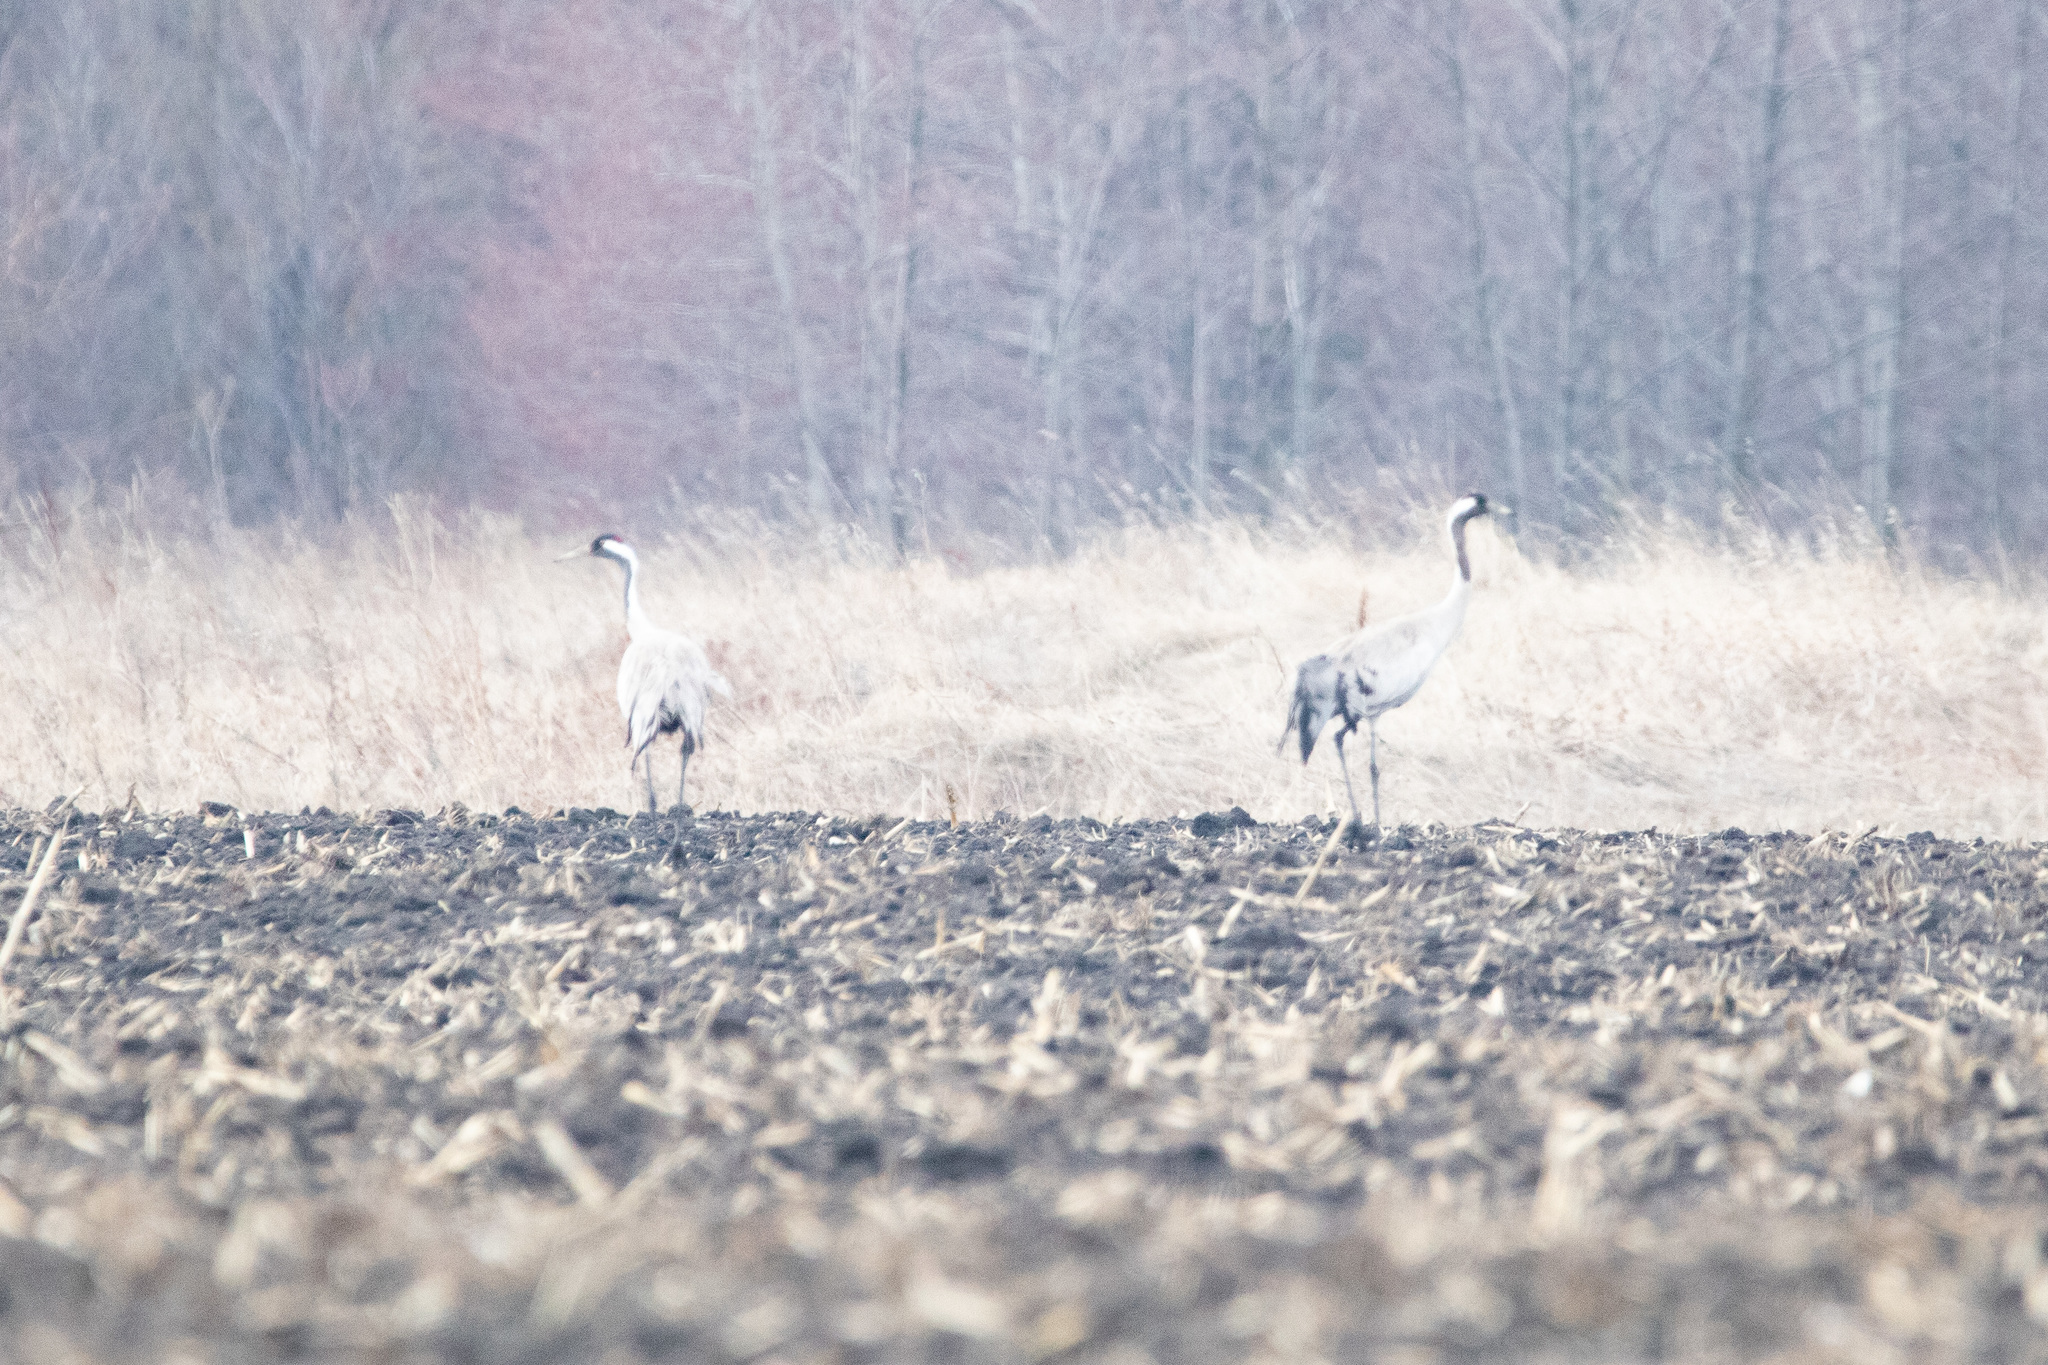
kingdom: Animalia
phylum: Chordata
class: Aves
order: Gruiformes
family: Gruidae
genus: Grus
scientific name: Grus grus
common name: Common crane
